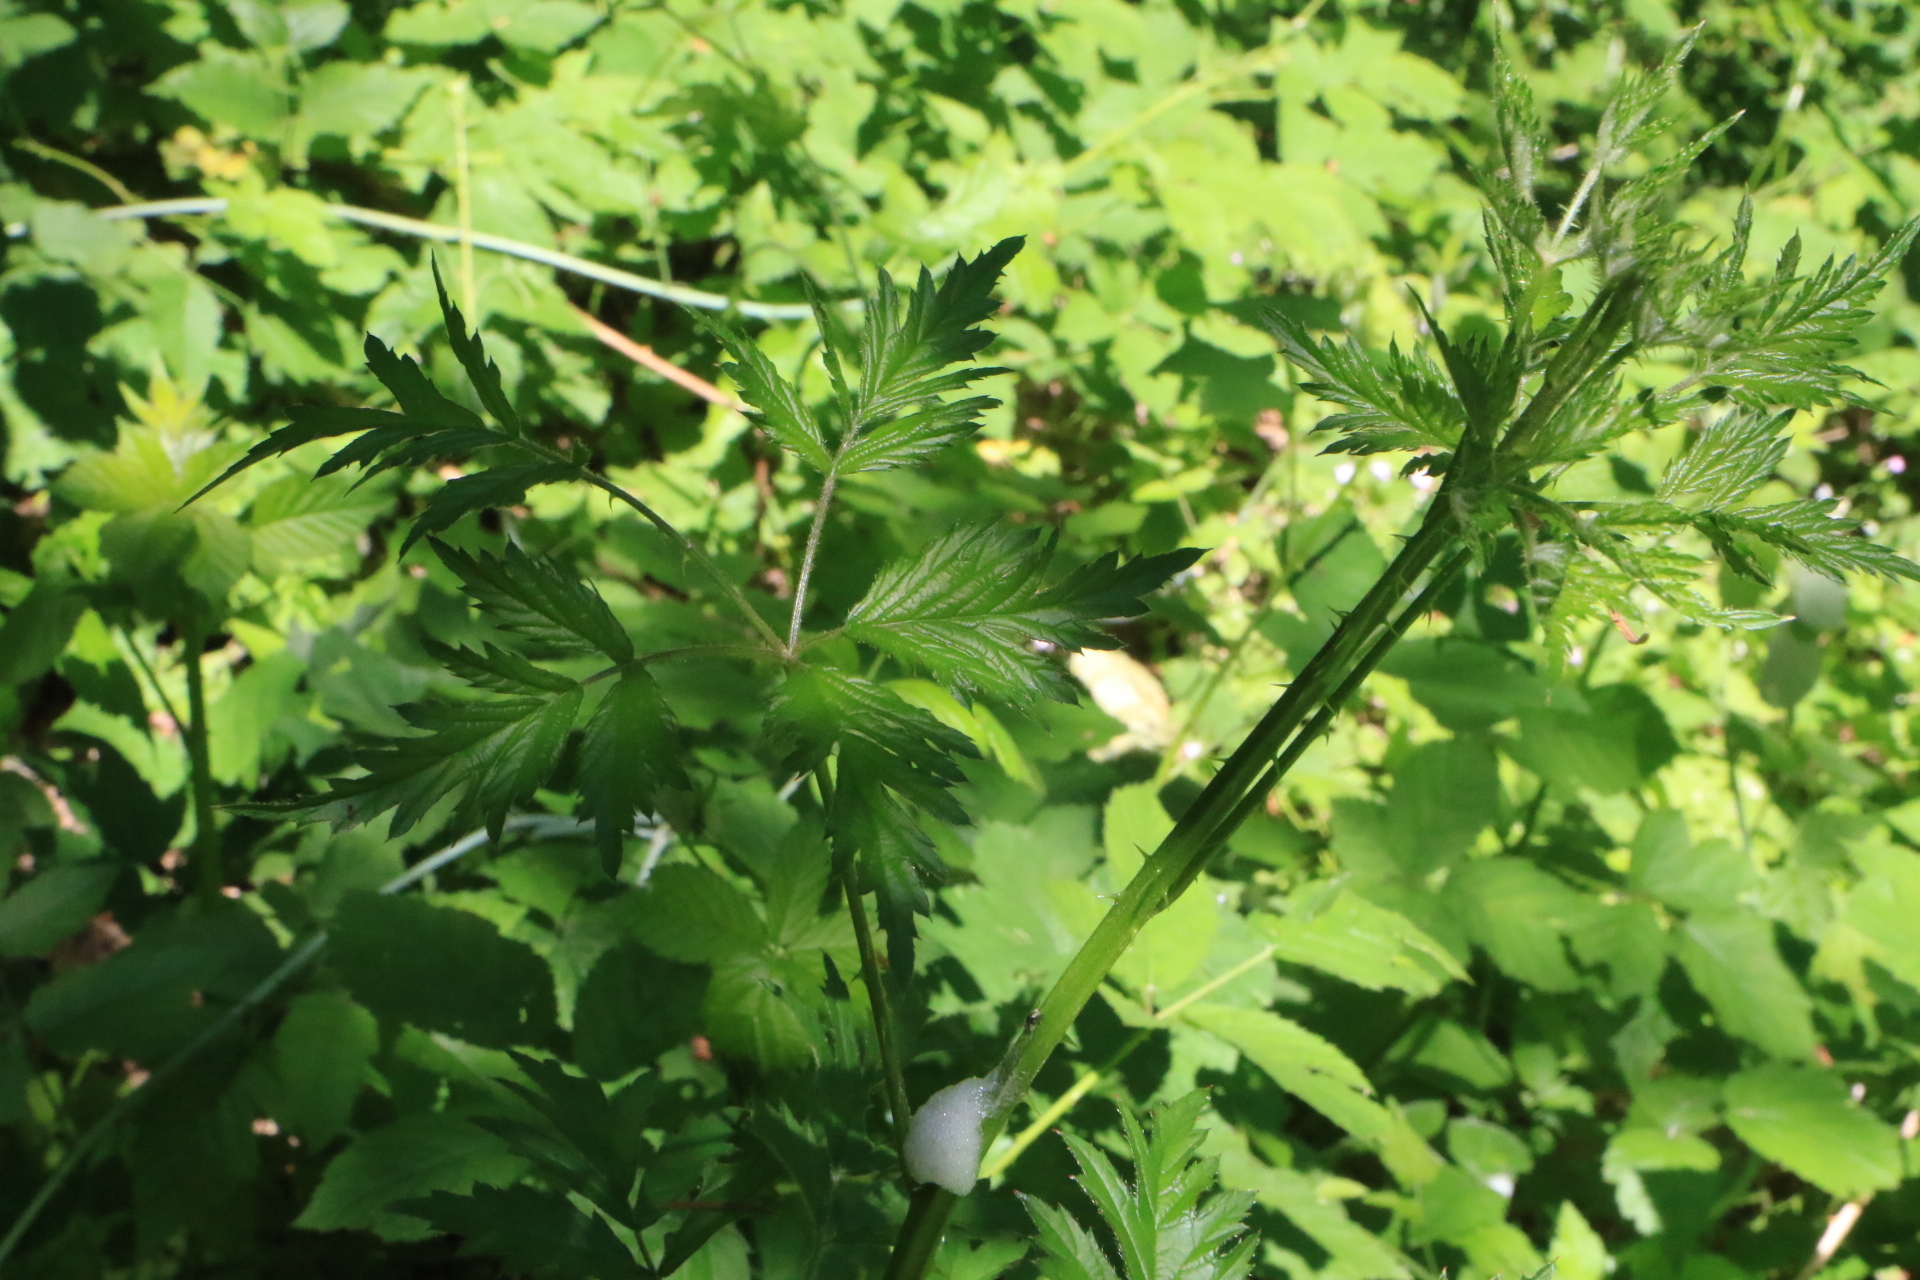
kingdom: Plantae
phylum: Tracheophyta
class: Magnoliopsida
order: Rosales
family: Rosaceae
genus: Rubus
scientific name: Rubus laciniatus
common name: Evergreen blackberry
